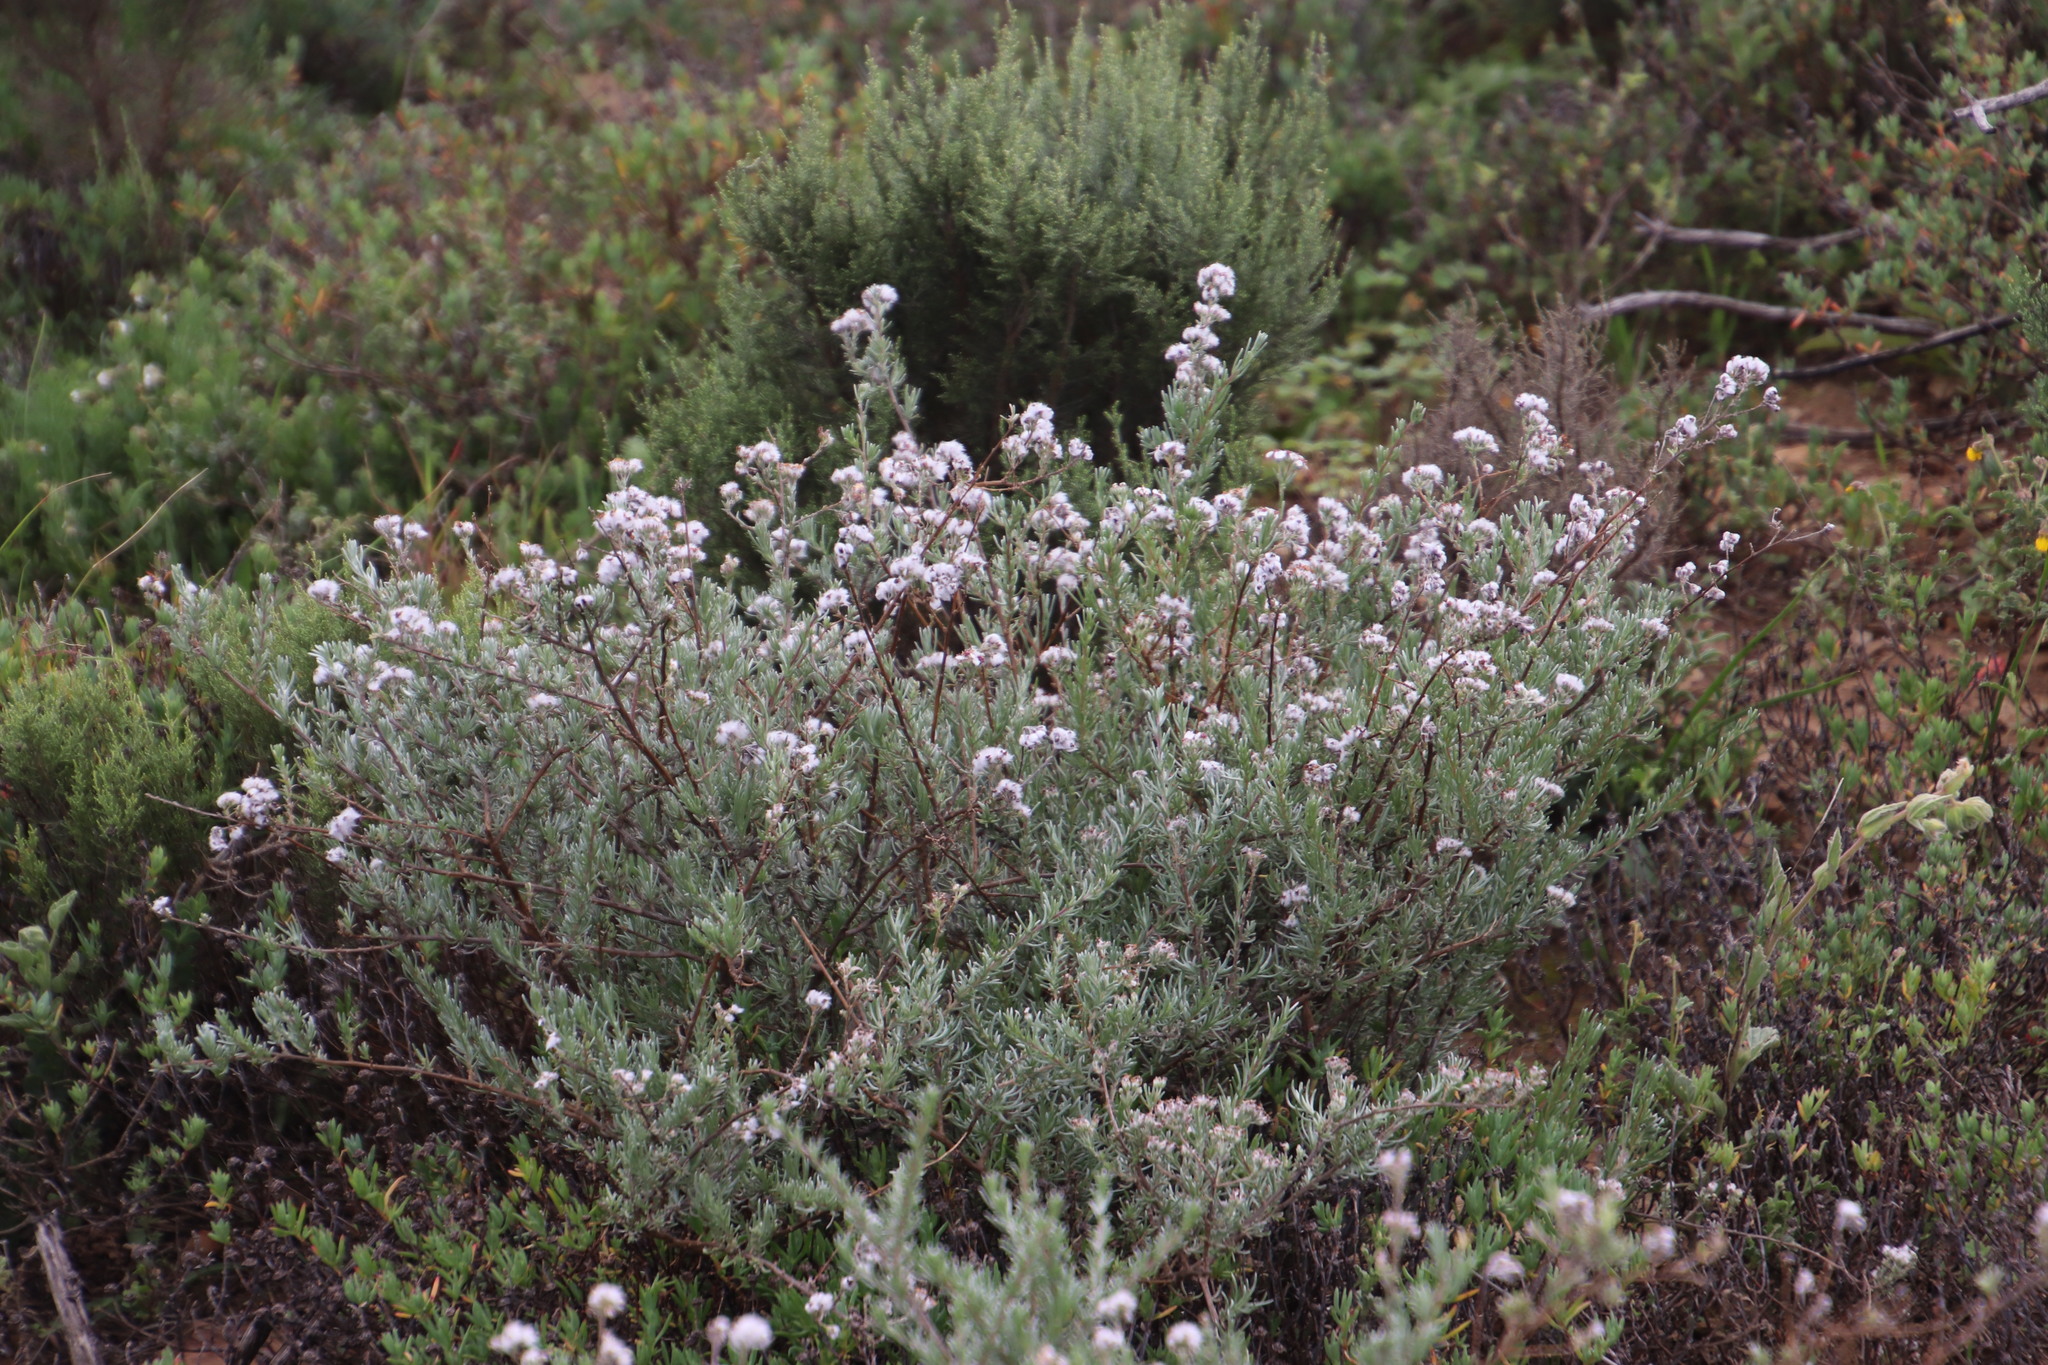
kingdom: Plantae
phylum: Tracheophyta
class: Magnoliopsida
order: Asterales
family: Asteraceae
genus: Eriocephalus
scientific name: Eriocephalus africanus
